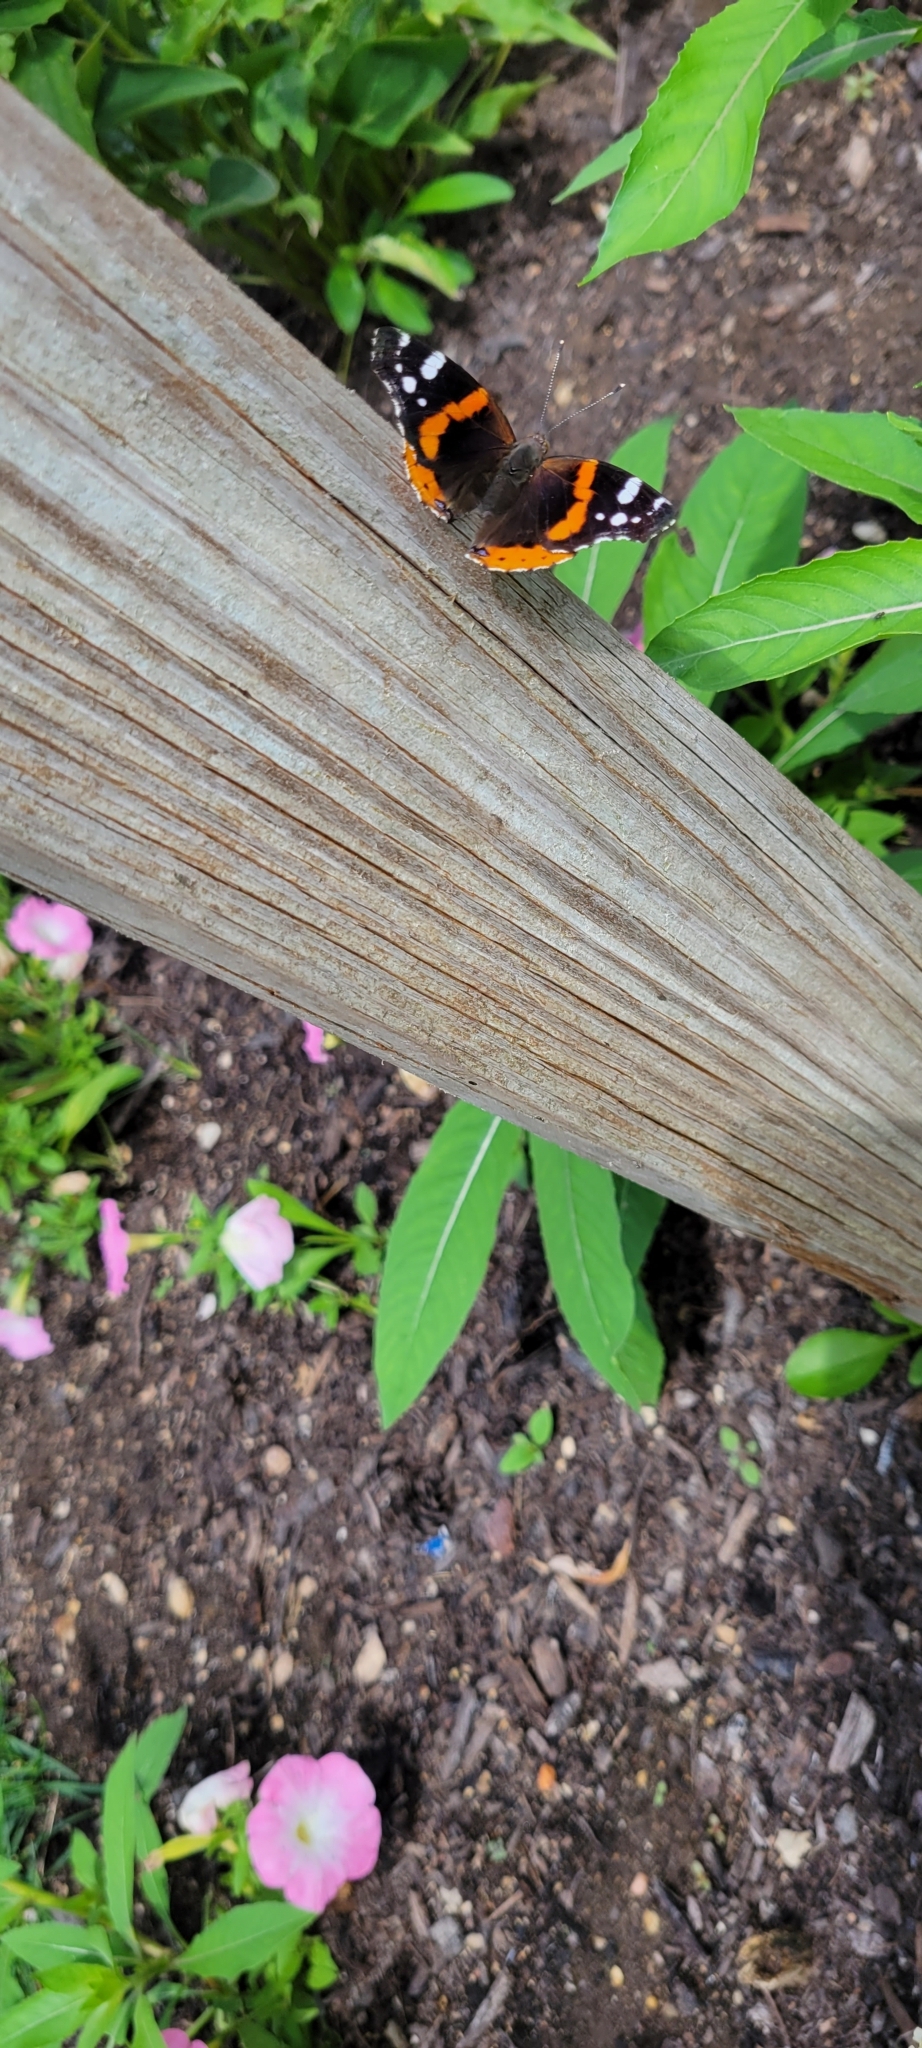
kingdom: Animalia
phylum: Arthropoda
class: Insecta
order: Lepidoptera
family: Nymphalidae
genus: Vanessa
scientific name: Vanessa atalanta
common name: Red admiral
